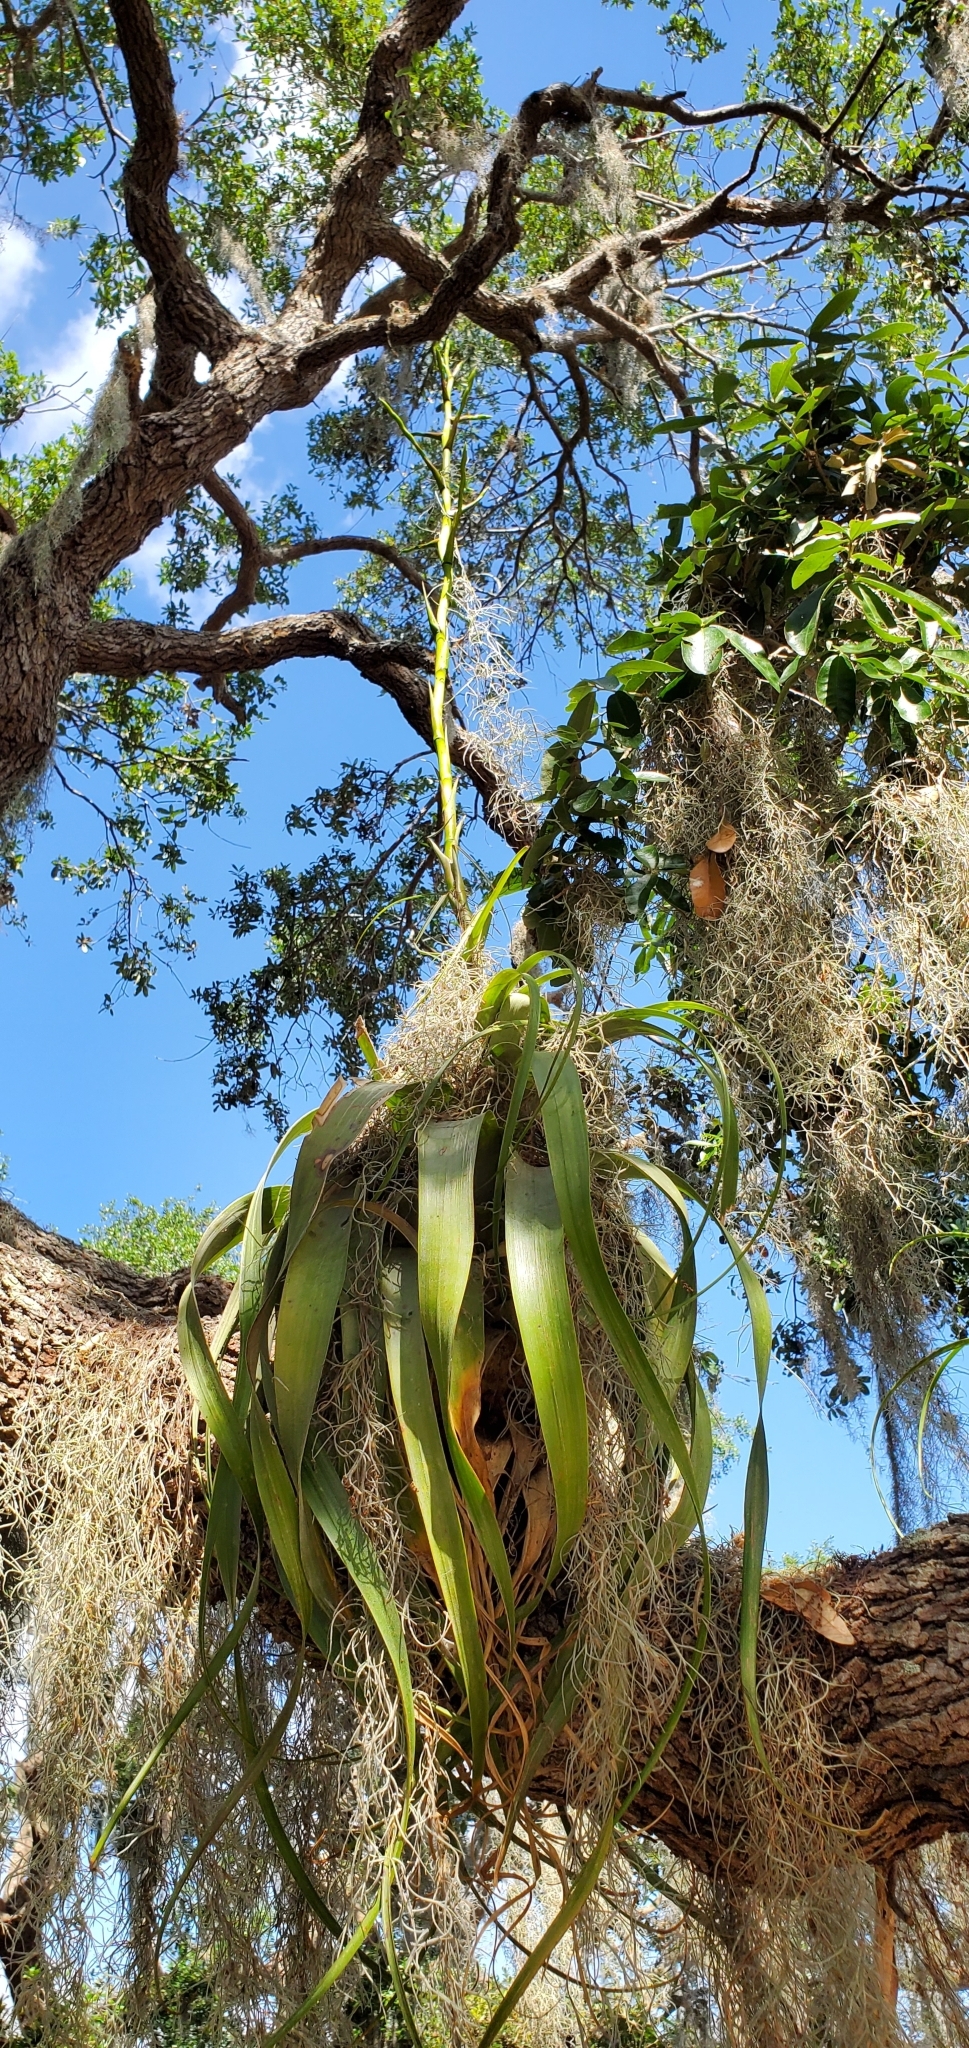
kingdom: Plantae
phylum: Tracheophyta
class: Liliopsida
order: Poales
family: Bromeliaceae
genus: Tillandsia
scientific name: Tillandsia utriculata
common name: Wild pine
